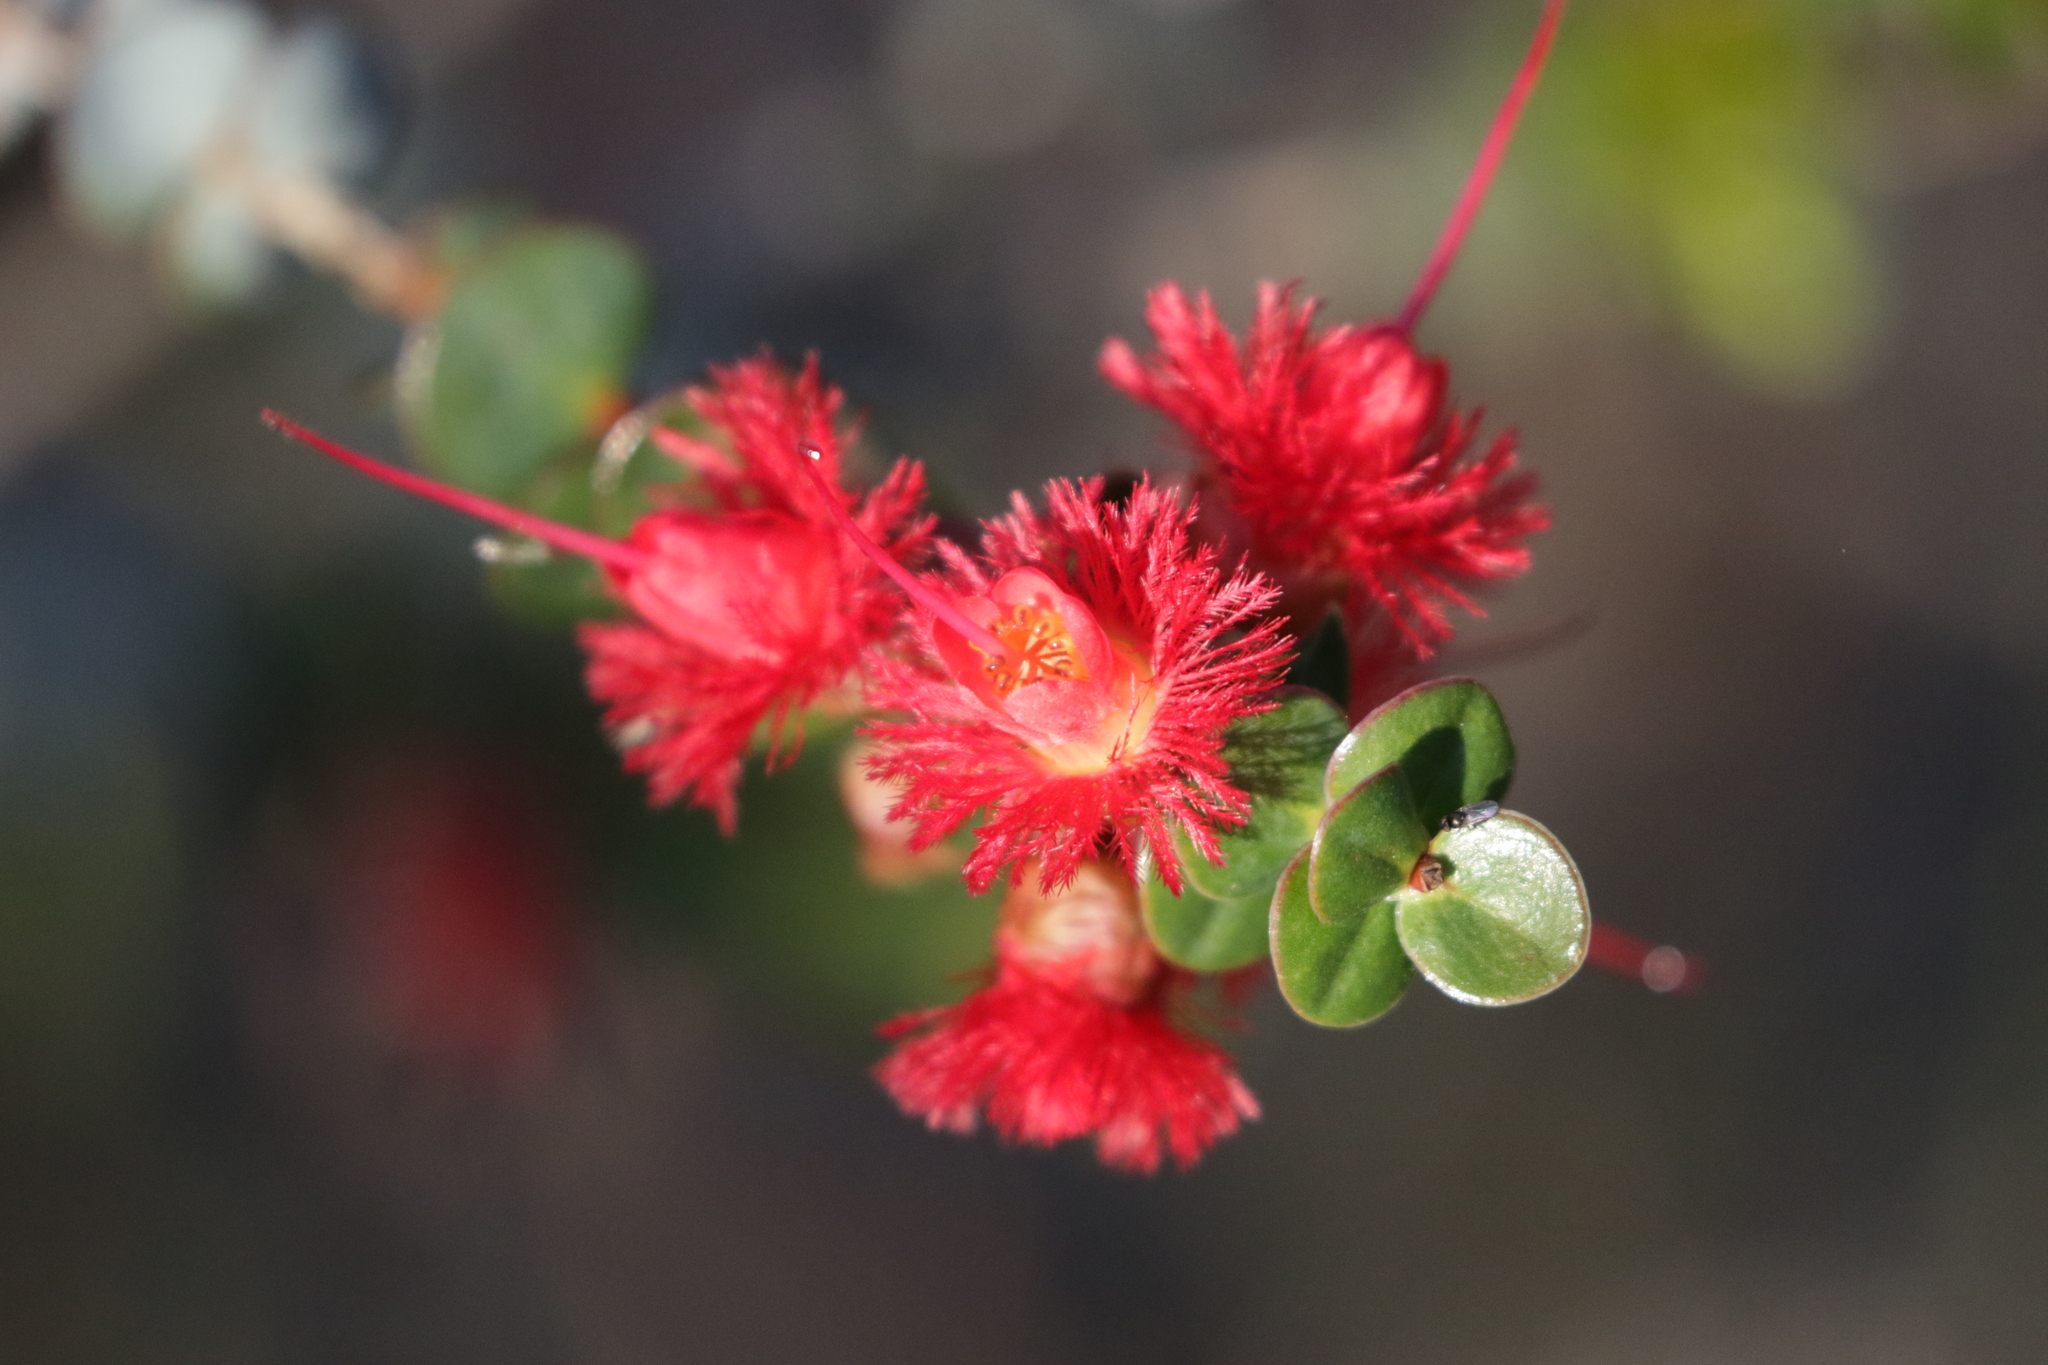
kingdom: Plantae
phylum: Tracheophyta
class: Magnoliopsida
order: Myrtales
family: Myrtaceae
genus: Verticordia
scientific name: Verticordia grandis
